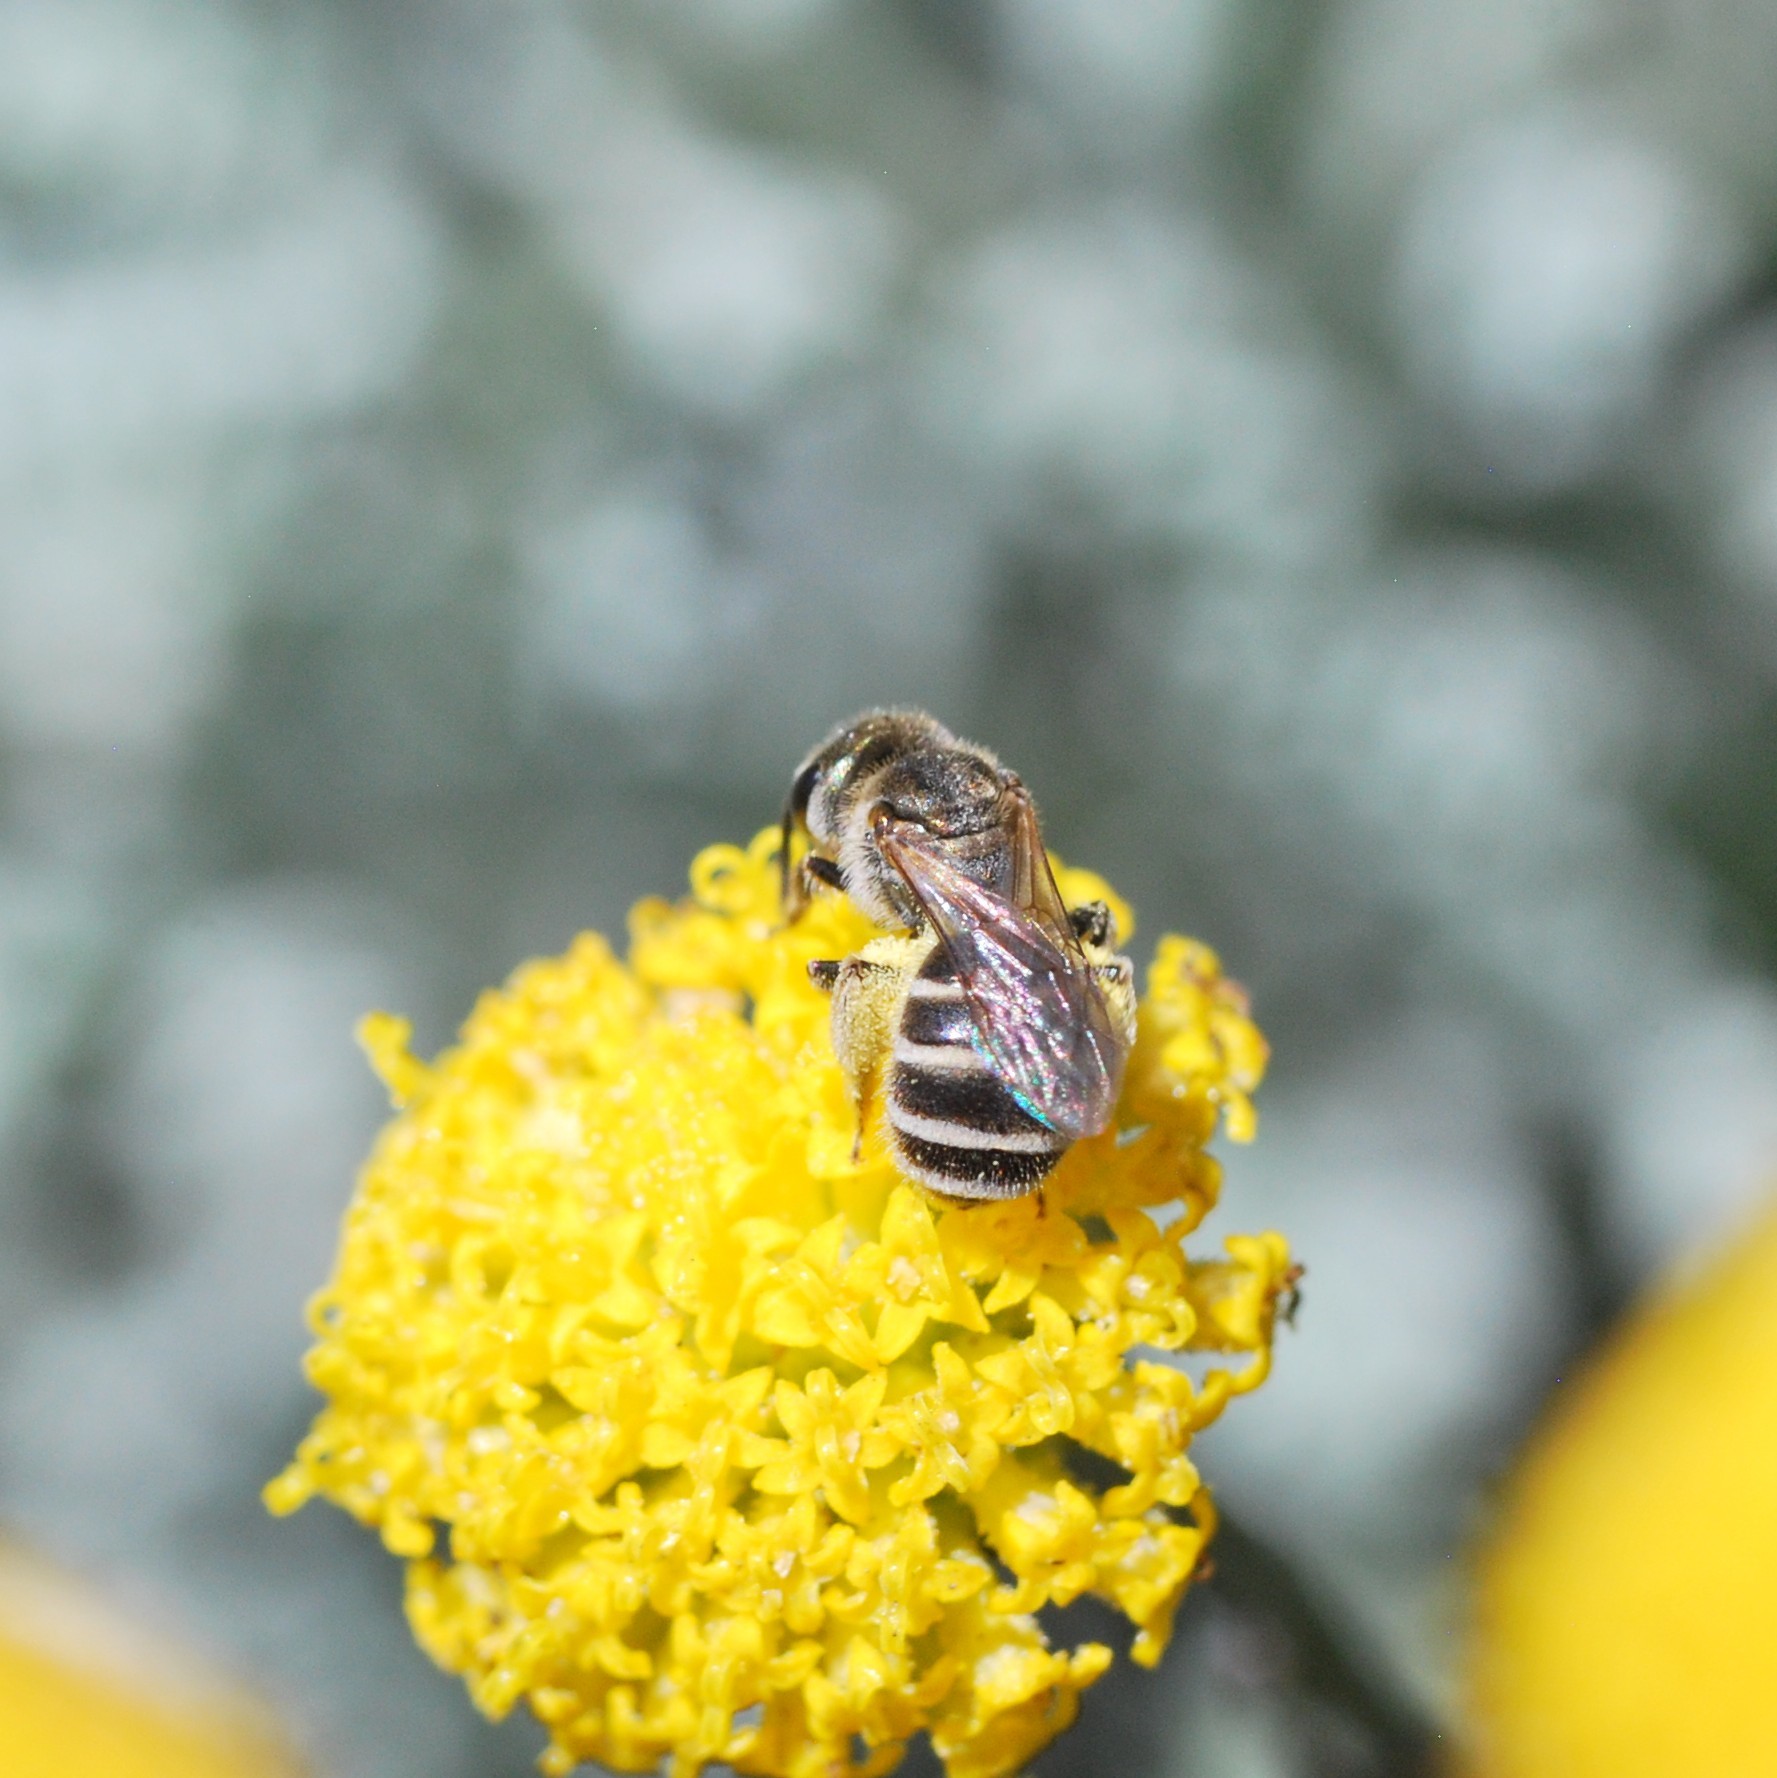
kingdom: Animalia
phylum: Arthropoda
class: Insecta
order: Hymenoptera
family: Halictidae
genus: Halictus
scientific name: Halictus tripartitus
